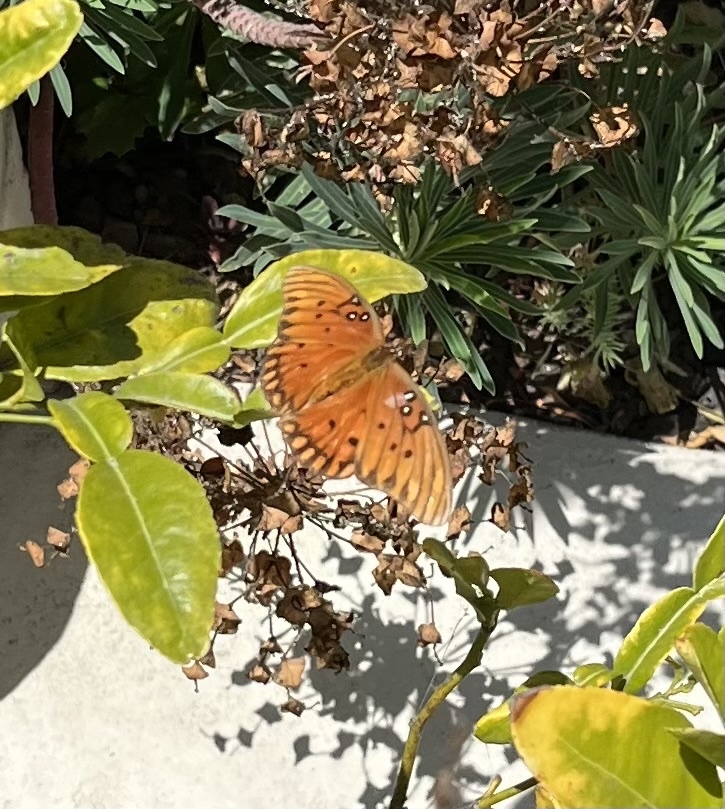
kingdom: Animalia
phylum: Arthropoda
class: Insecta
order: Lepidoptera
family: Nymphalidae
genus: Dione
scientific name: Dione vanillae
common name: Gulf fritillary
